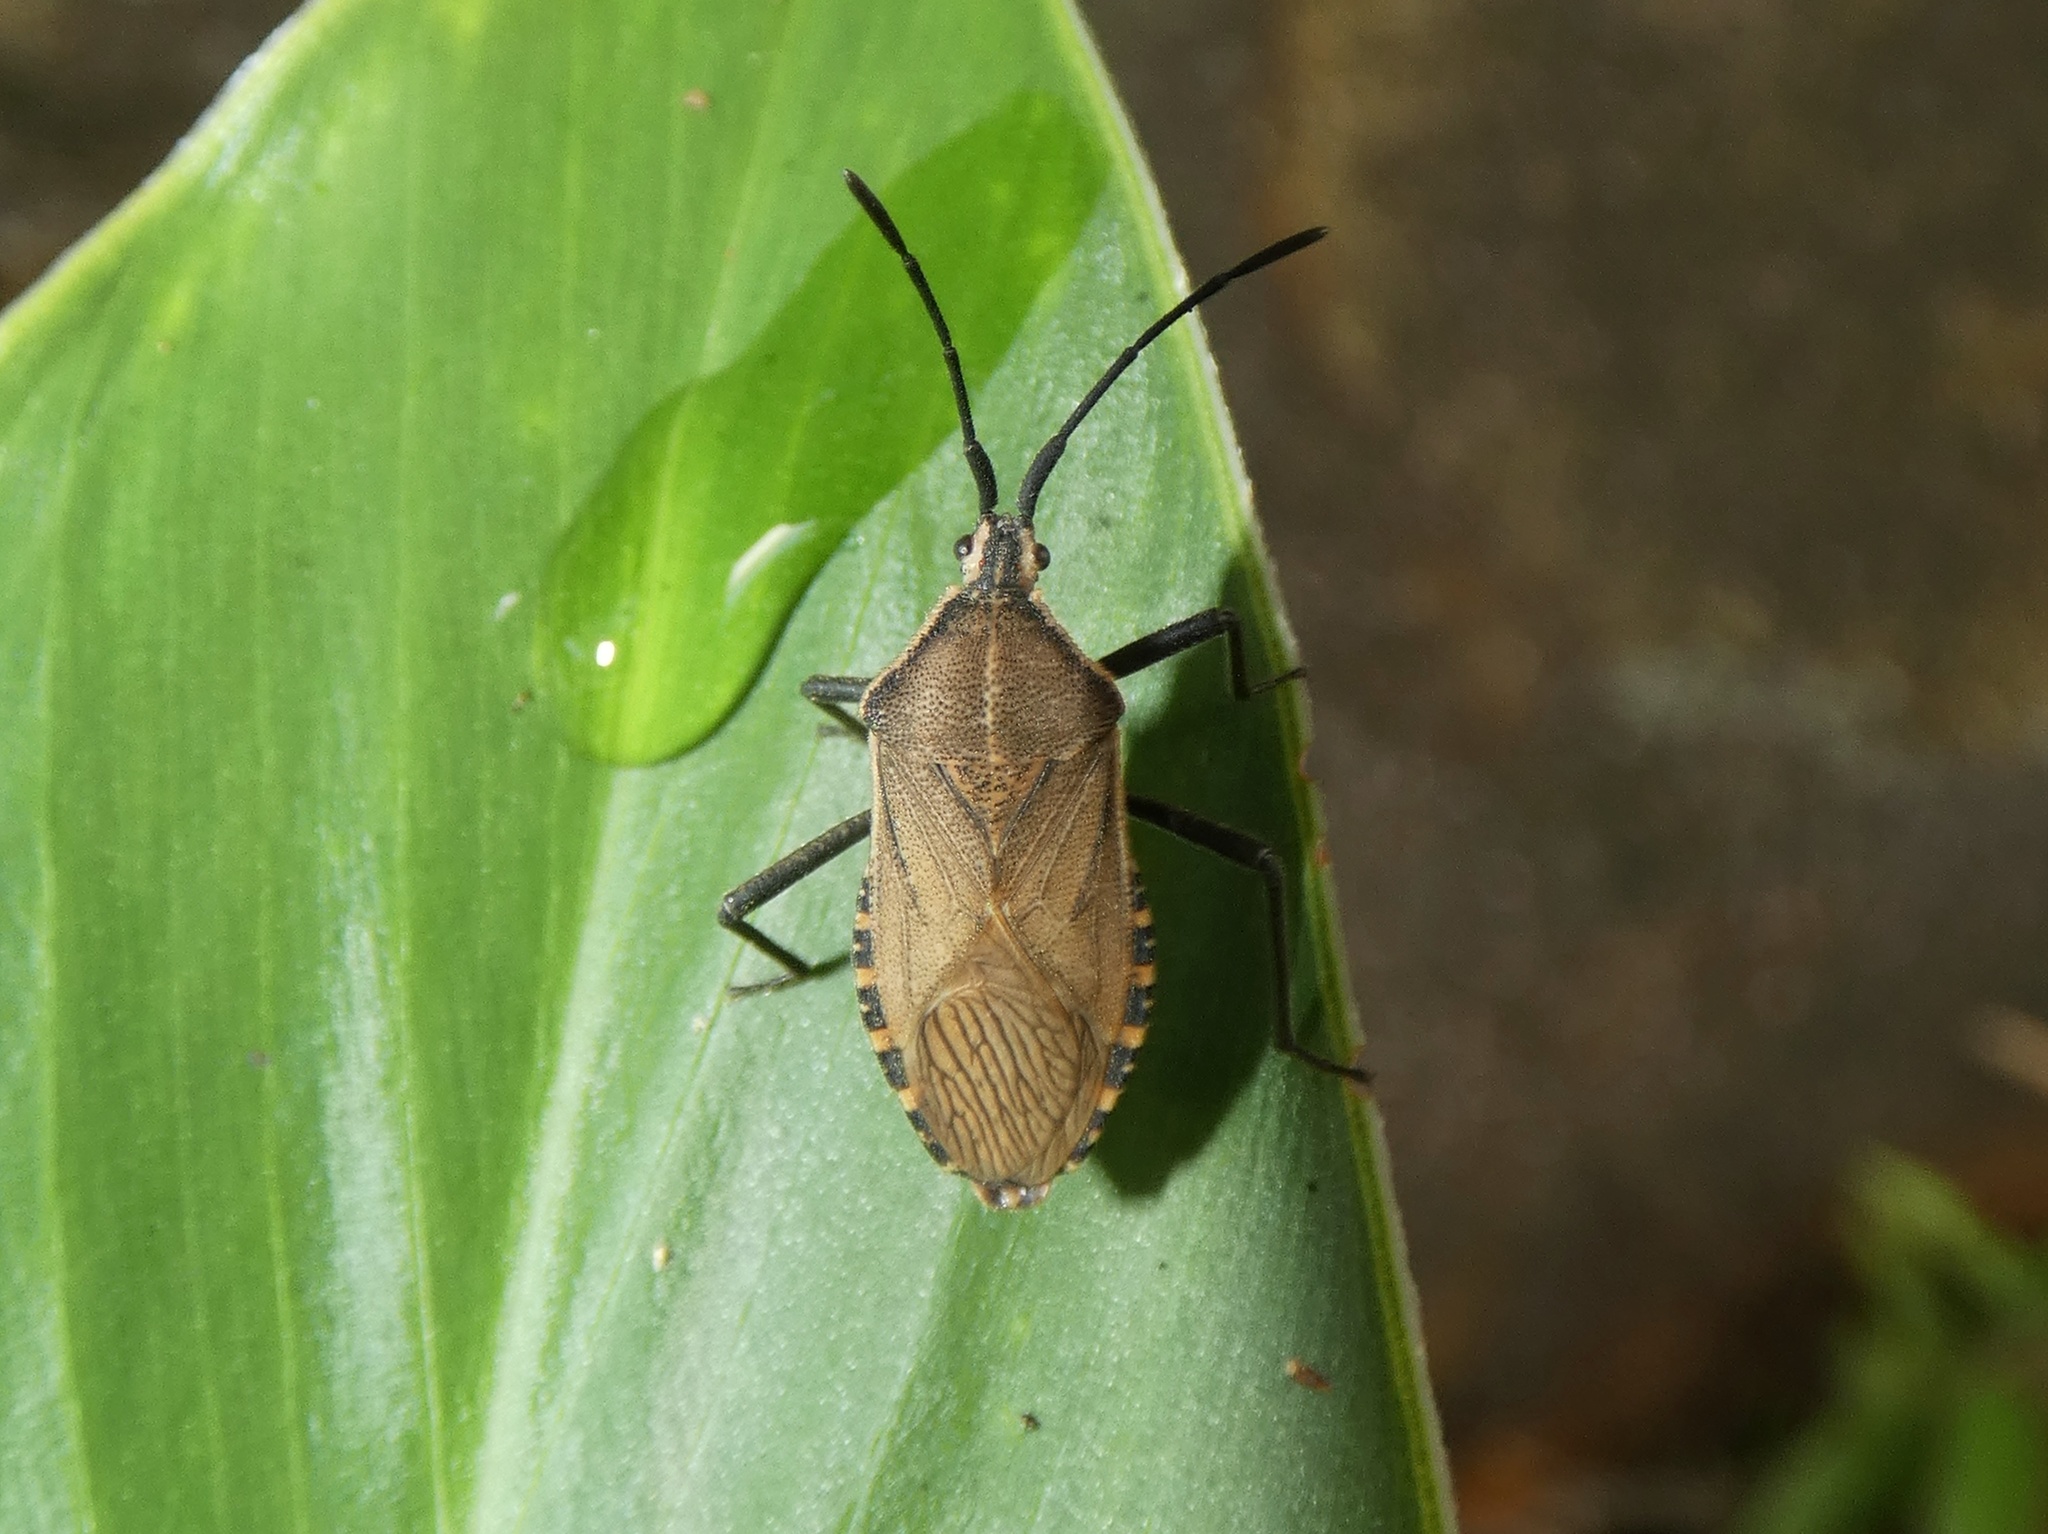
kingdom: Animalia
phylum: Arthropoda
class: Insecta
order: Hemiptera
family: Coreidae
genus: Cimolus
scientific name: Cimolus luteus
